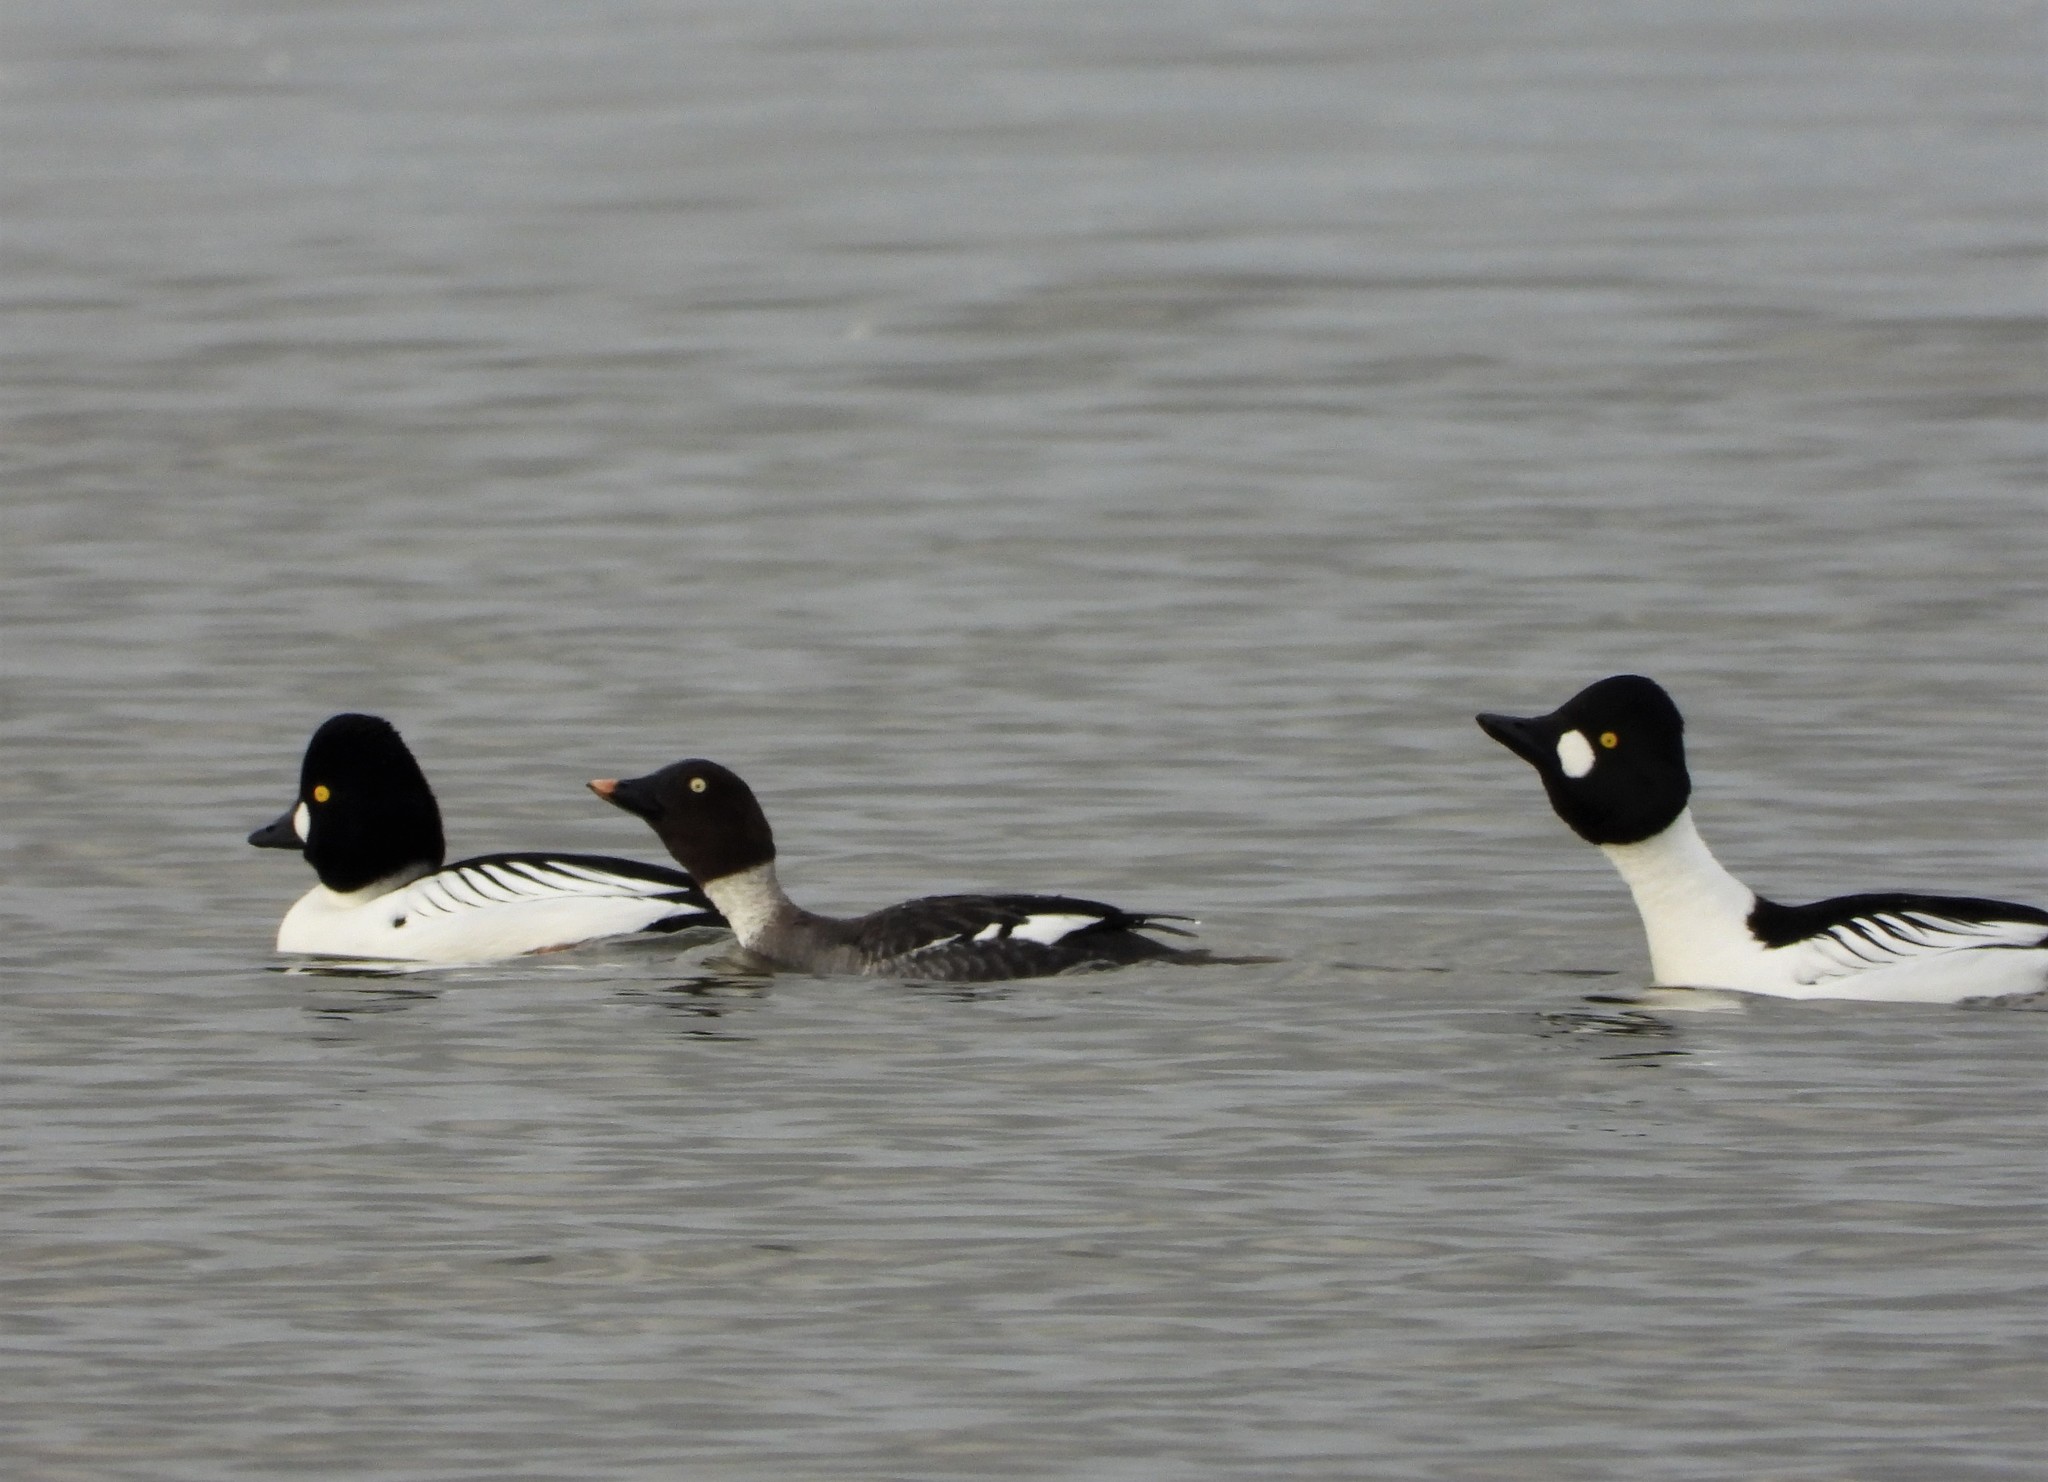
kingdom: Animalia
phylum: Chordata
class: Aves
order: Anseriformes
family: Anatidae
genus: Bucephala
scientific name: Bucephala clangula
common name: Common goldeneye
